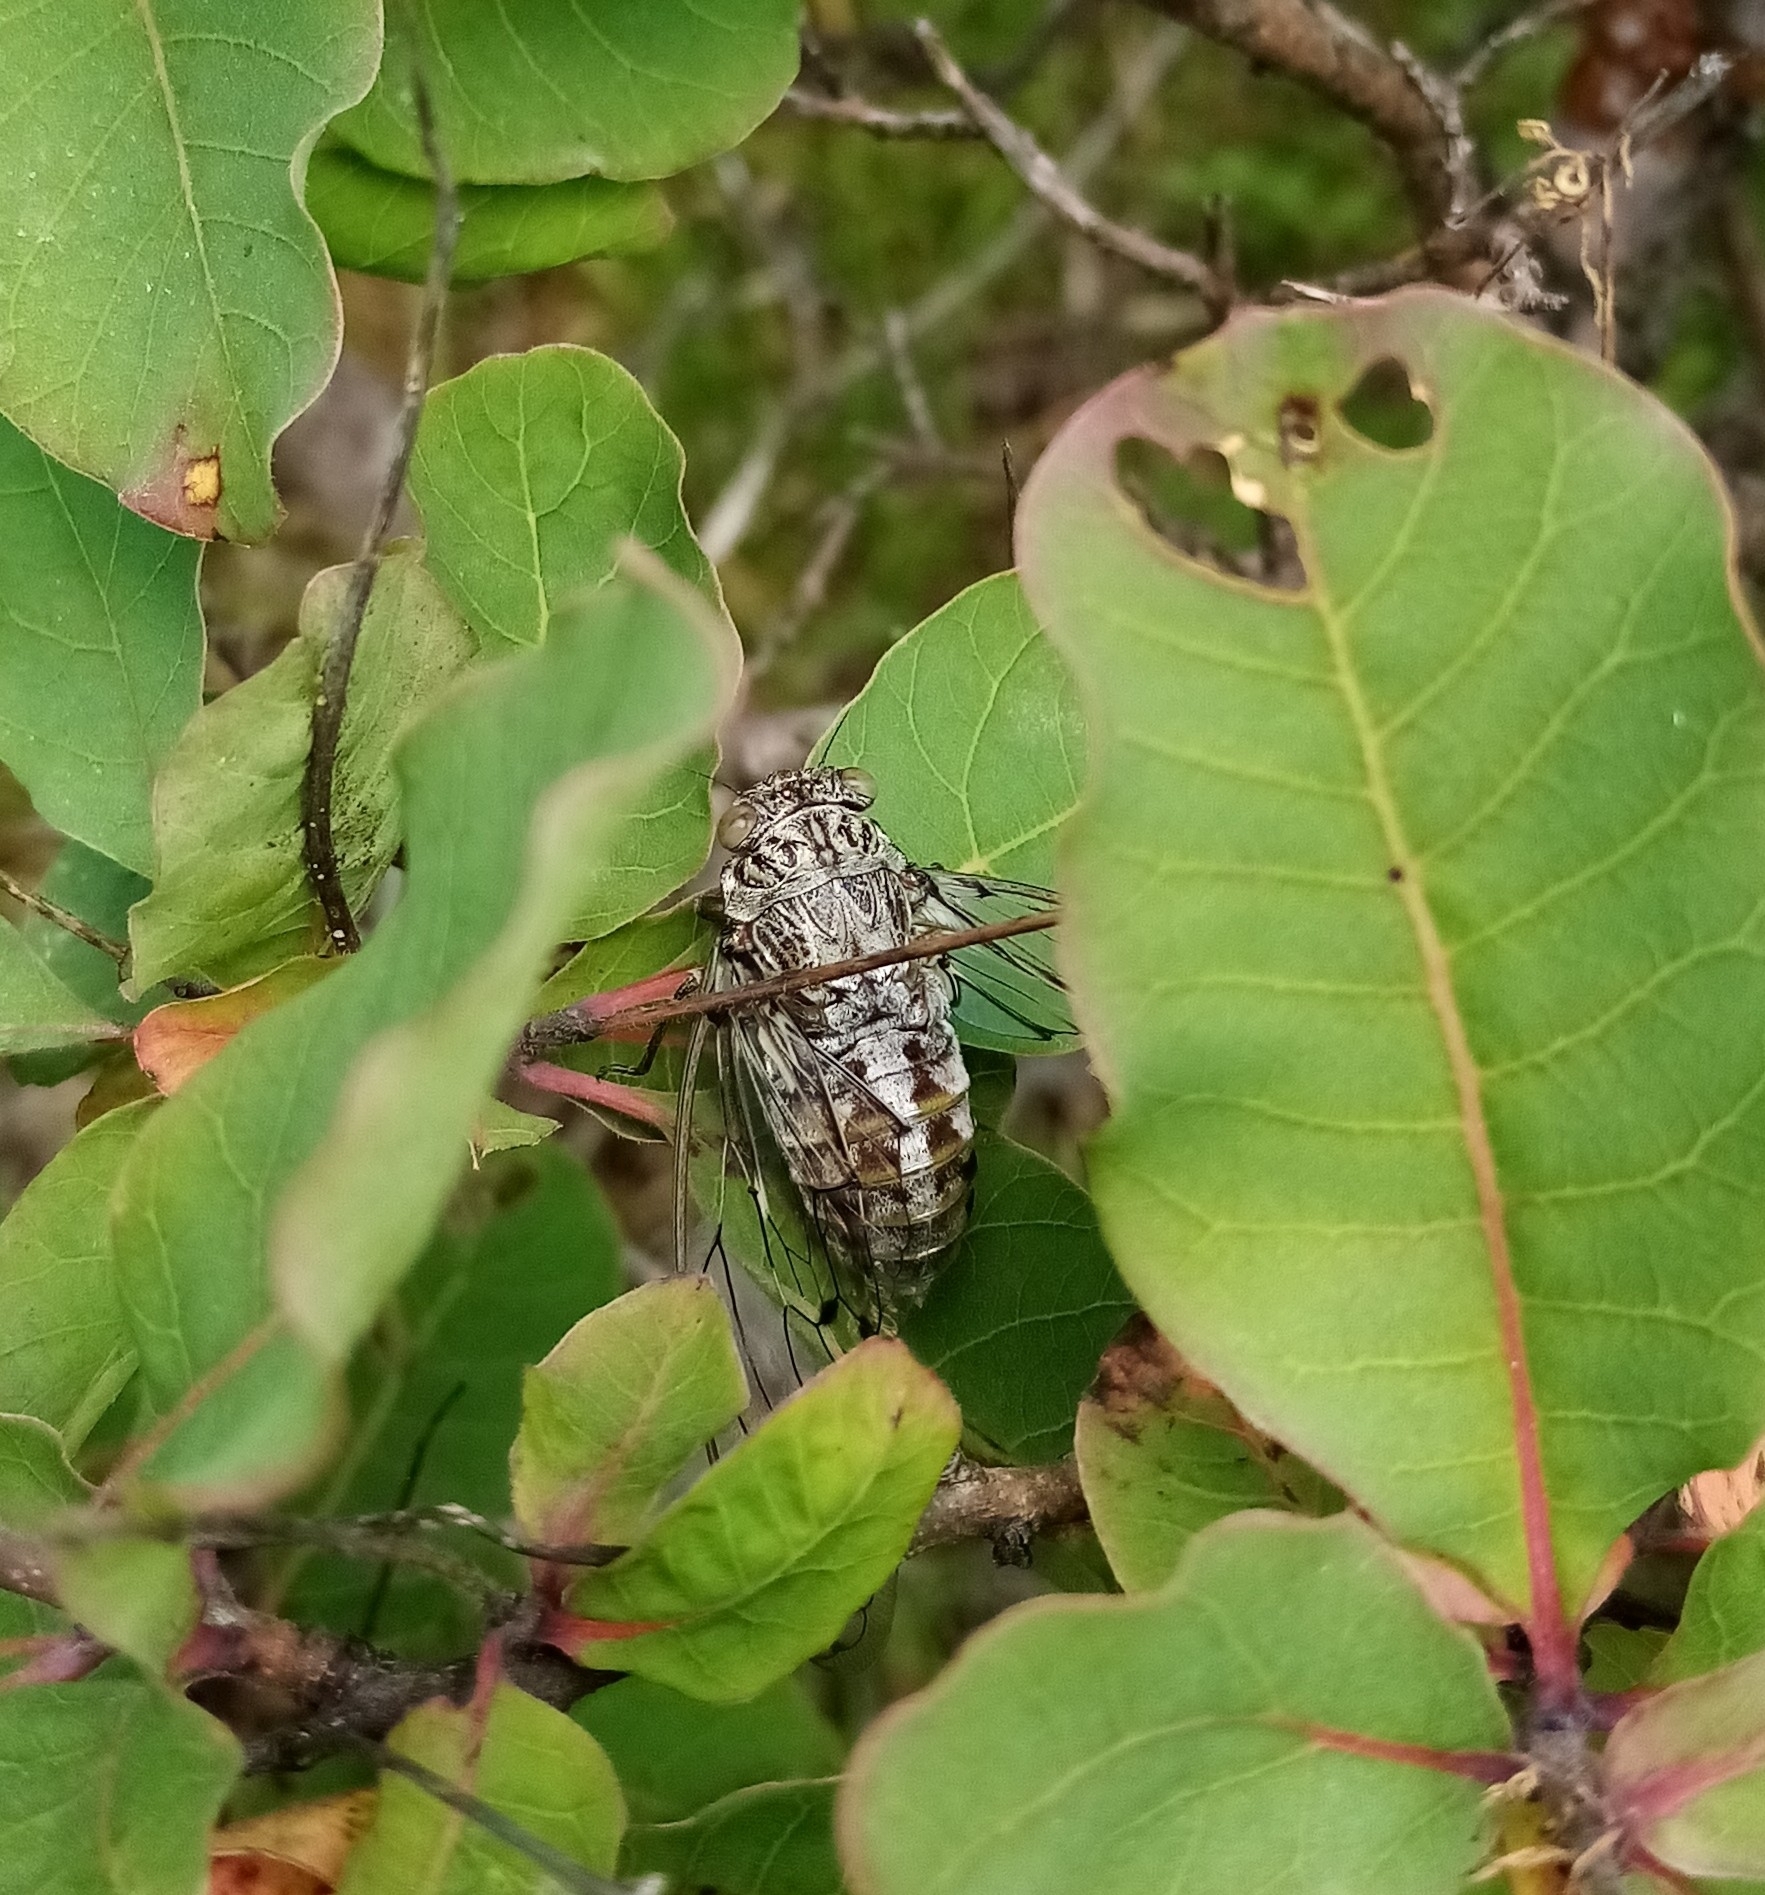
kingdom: Animalia
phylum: Arthropoda
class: Insecta
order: Hemiptera
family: Cicadidae
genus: Cicada
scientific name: Cicada orni
